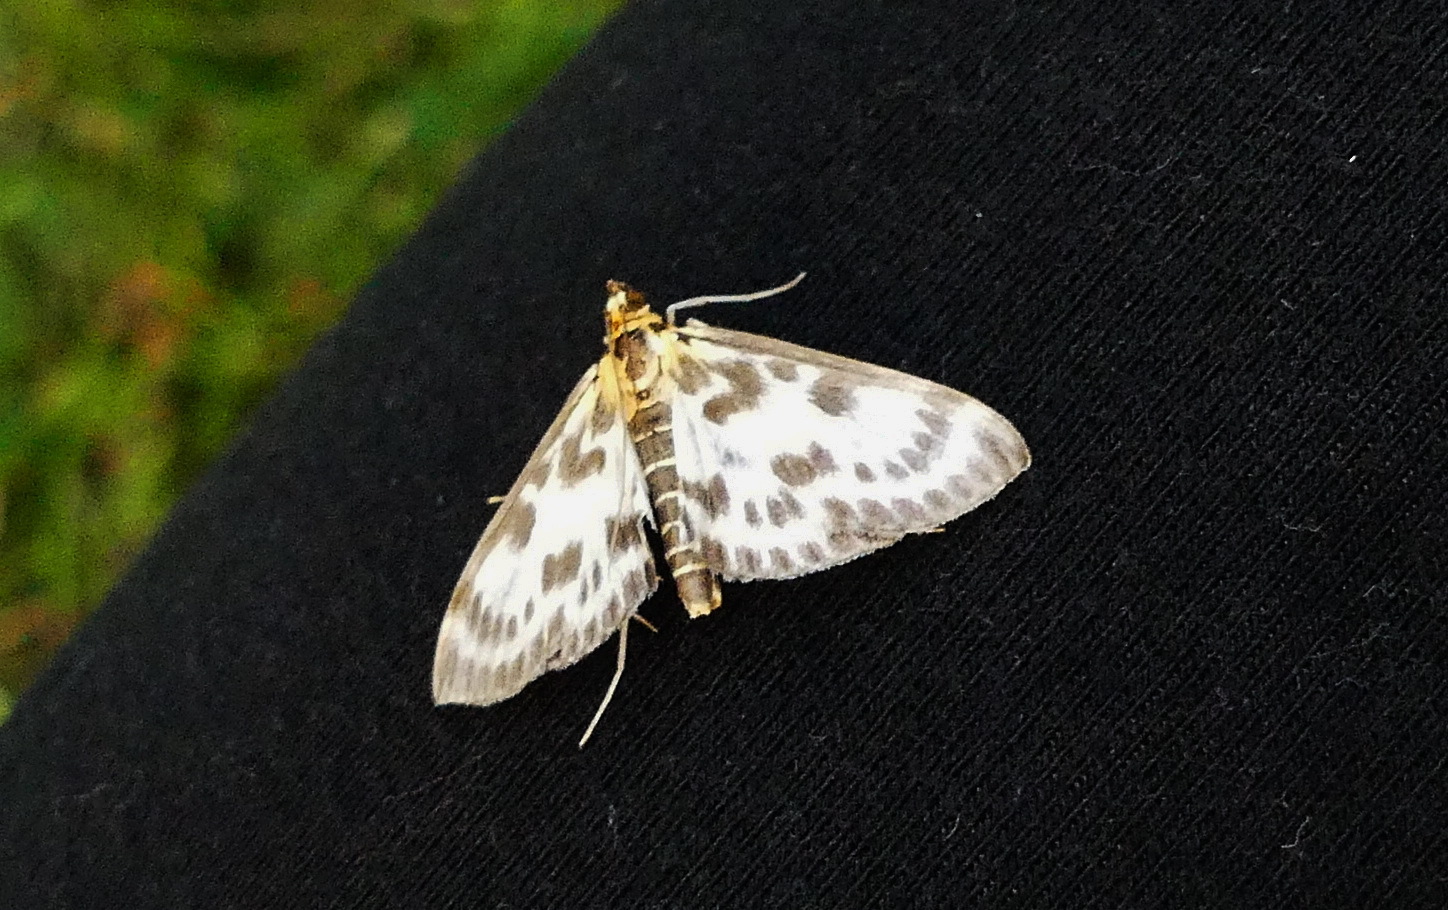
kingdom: Animalia
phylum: Arthropoda
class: Insecta
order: Lepidoptera
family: Crambidae
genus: Anania
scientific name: Anania hortulata
